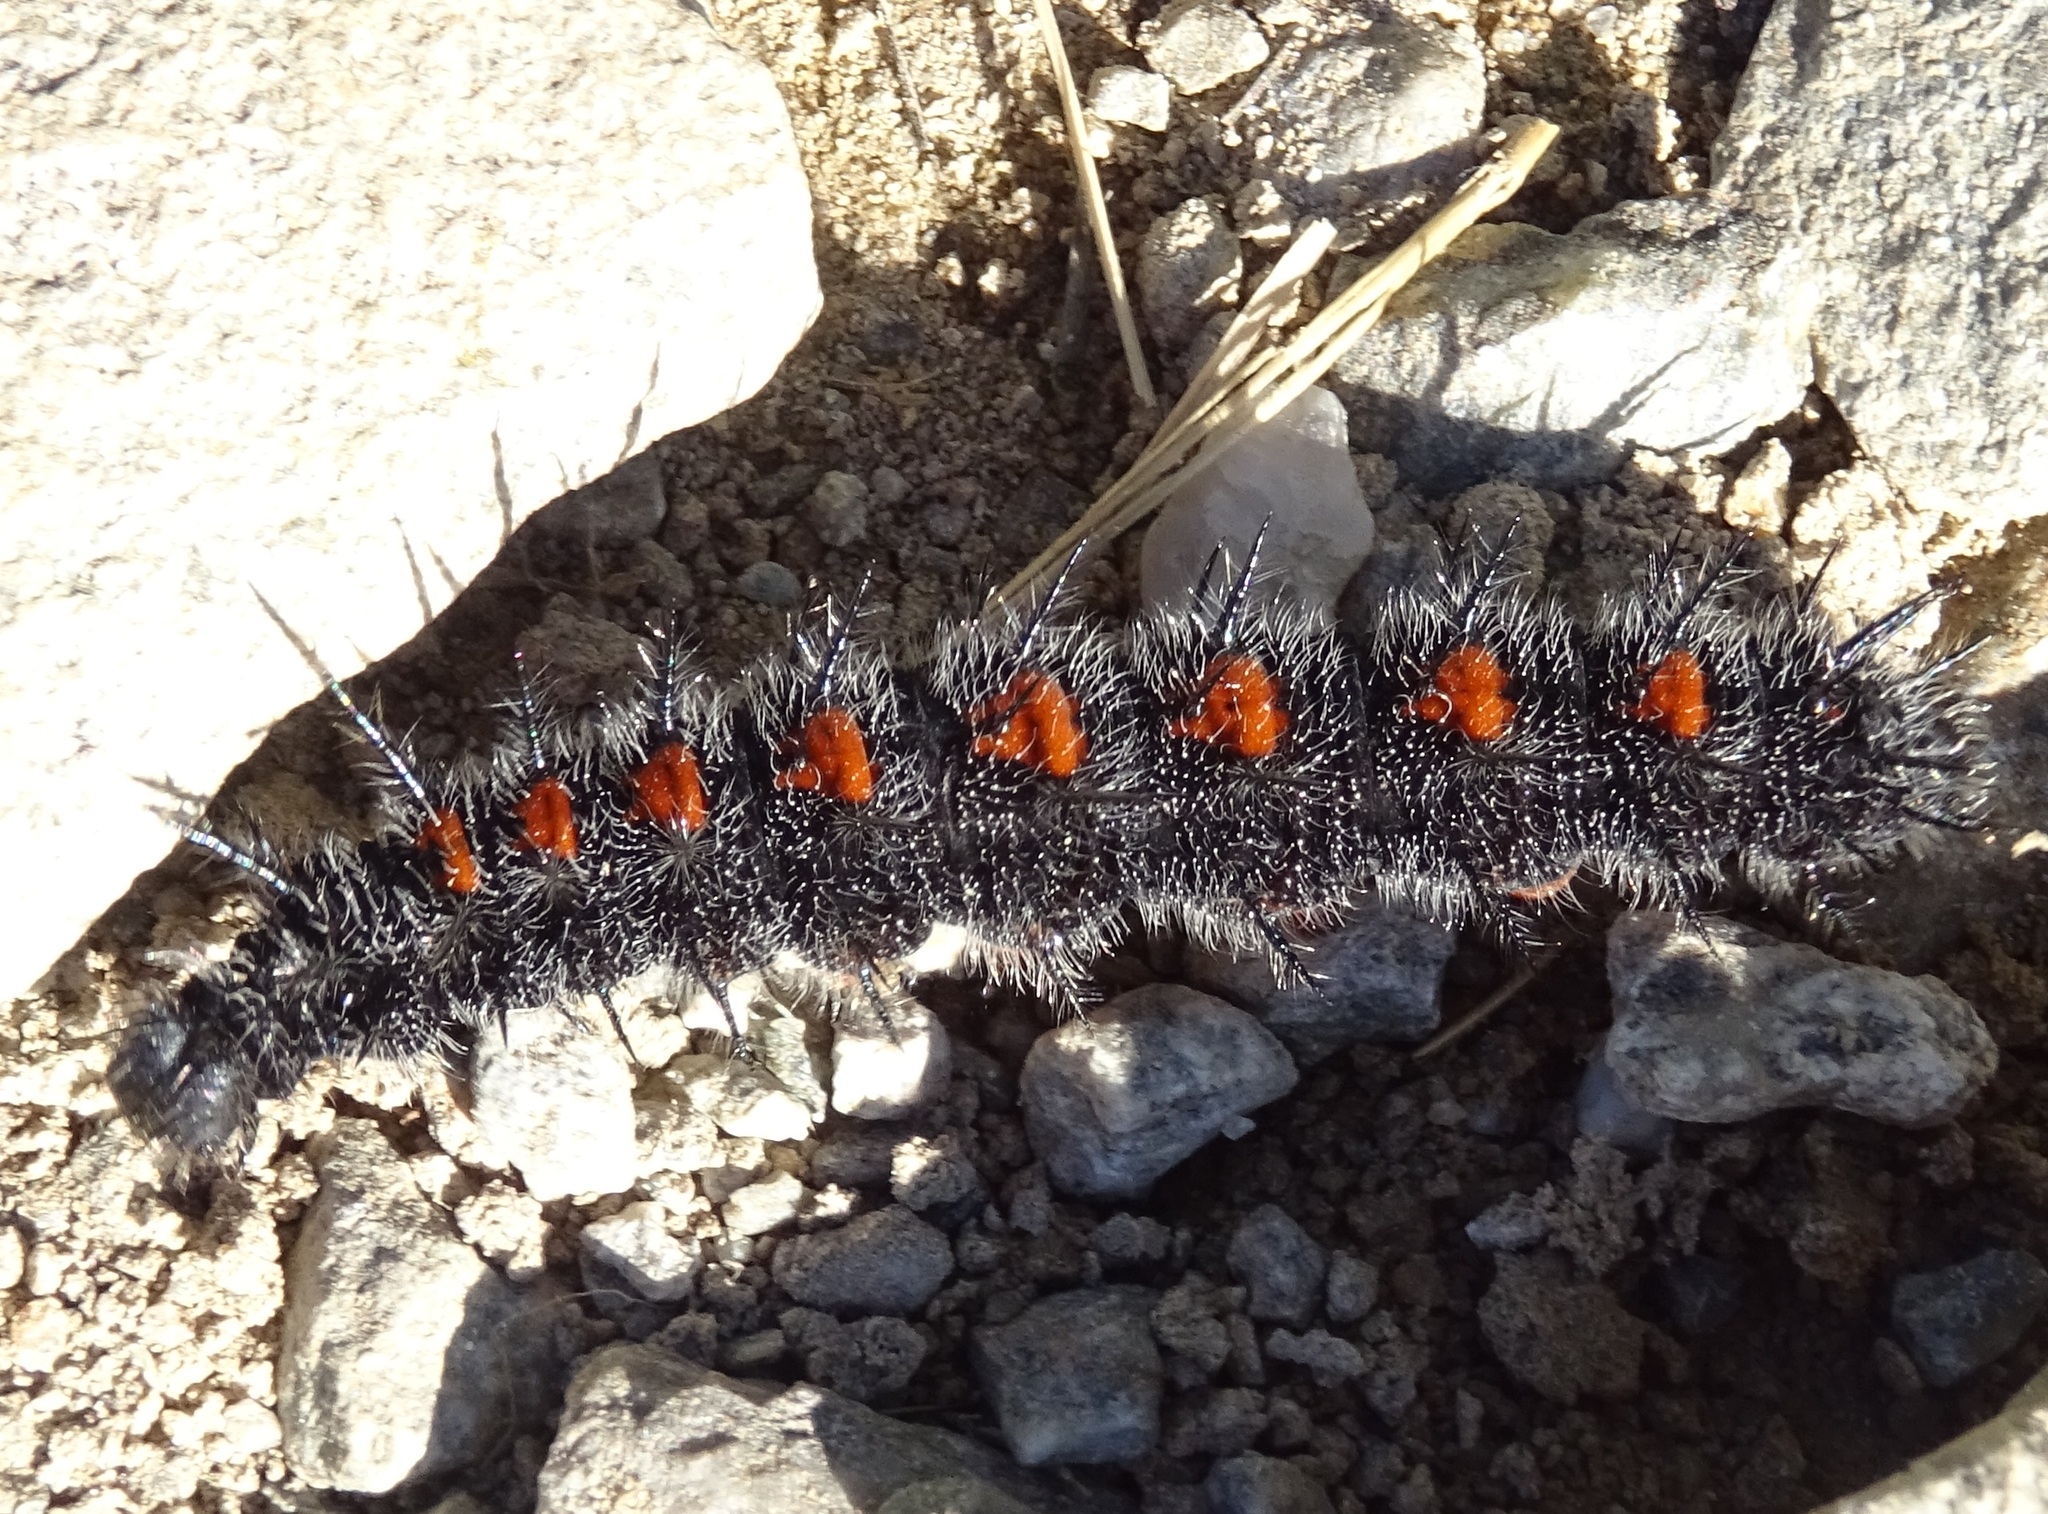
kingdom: Animalia
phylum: Arthropoda
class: Insecta
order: Lepidoptera
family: Nymphalidae
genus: Nymphalis
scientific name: Nymphalis antiopa
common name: Camberwell beauty
